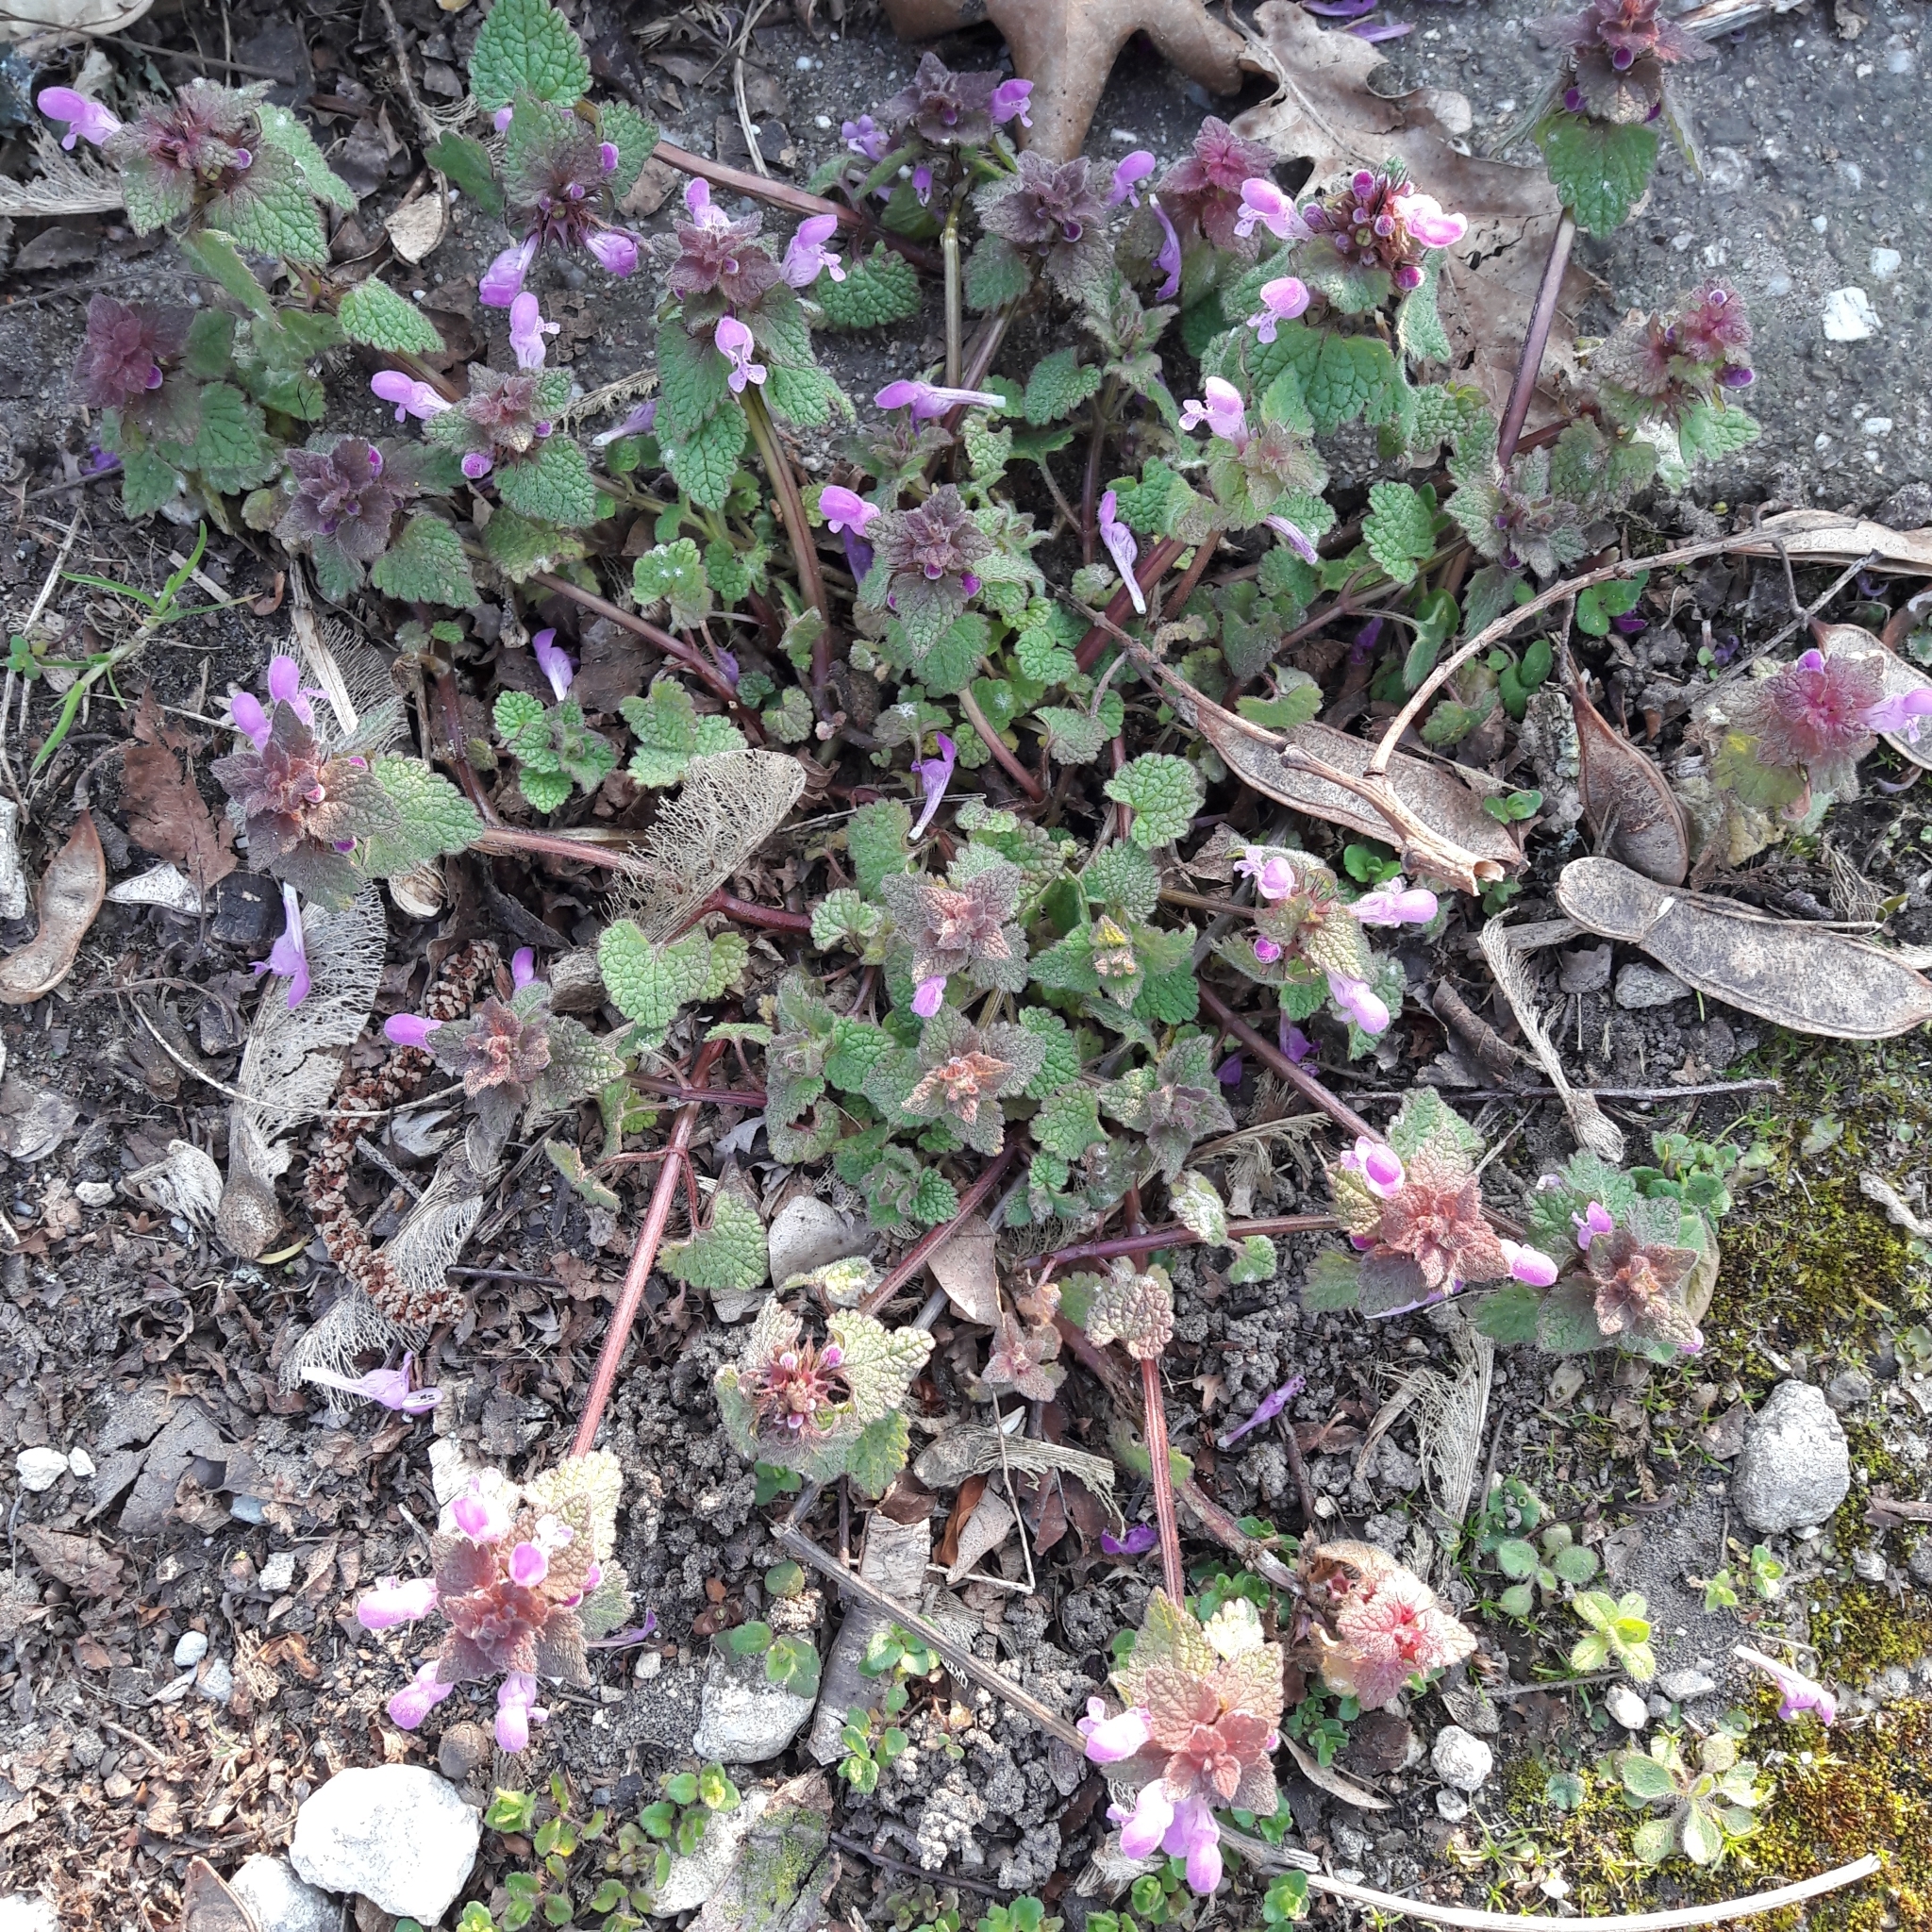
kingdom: Plantae
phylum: Tracheophyta
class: Magnoliopsida
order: Lamiales
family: Lamiaceae
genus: Lamium
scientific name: Lamium purpureum
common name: Red dead-nettle
